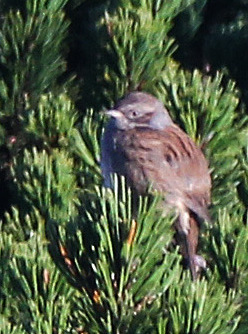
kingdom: Animalia
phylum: Chordata
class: Aves
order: Passeriformes
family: Prunellidae
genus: Prunella
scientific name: Prunella modularis
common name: Dunnock
